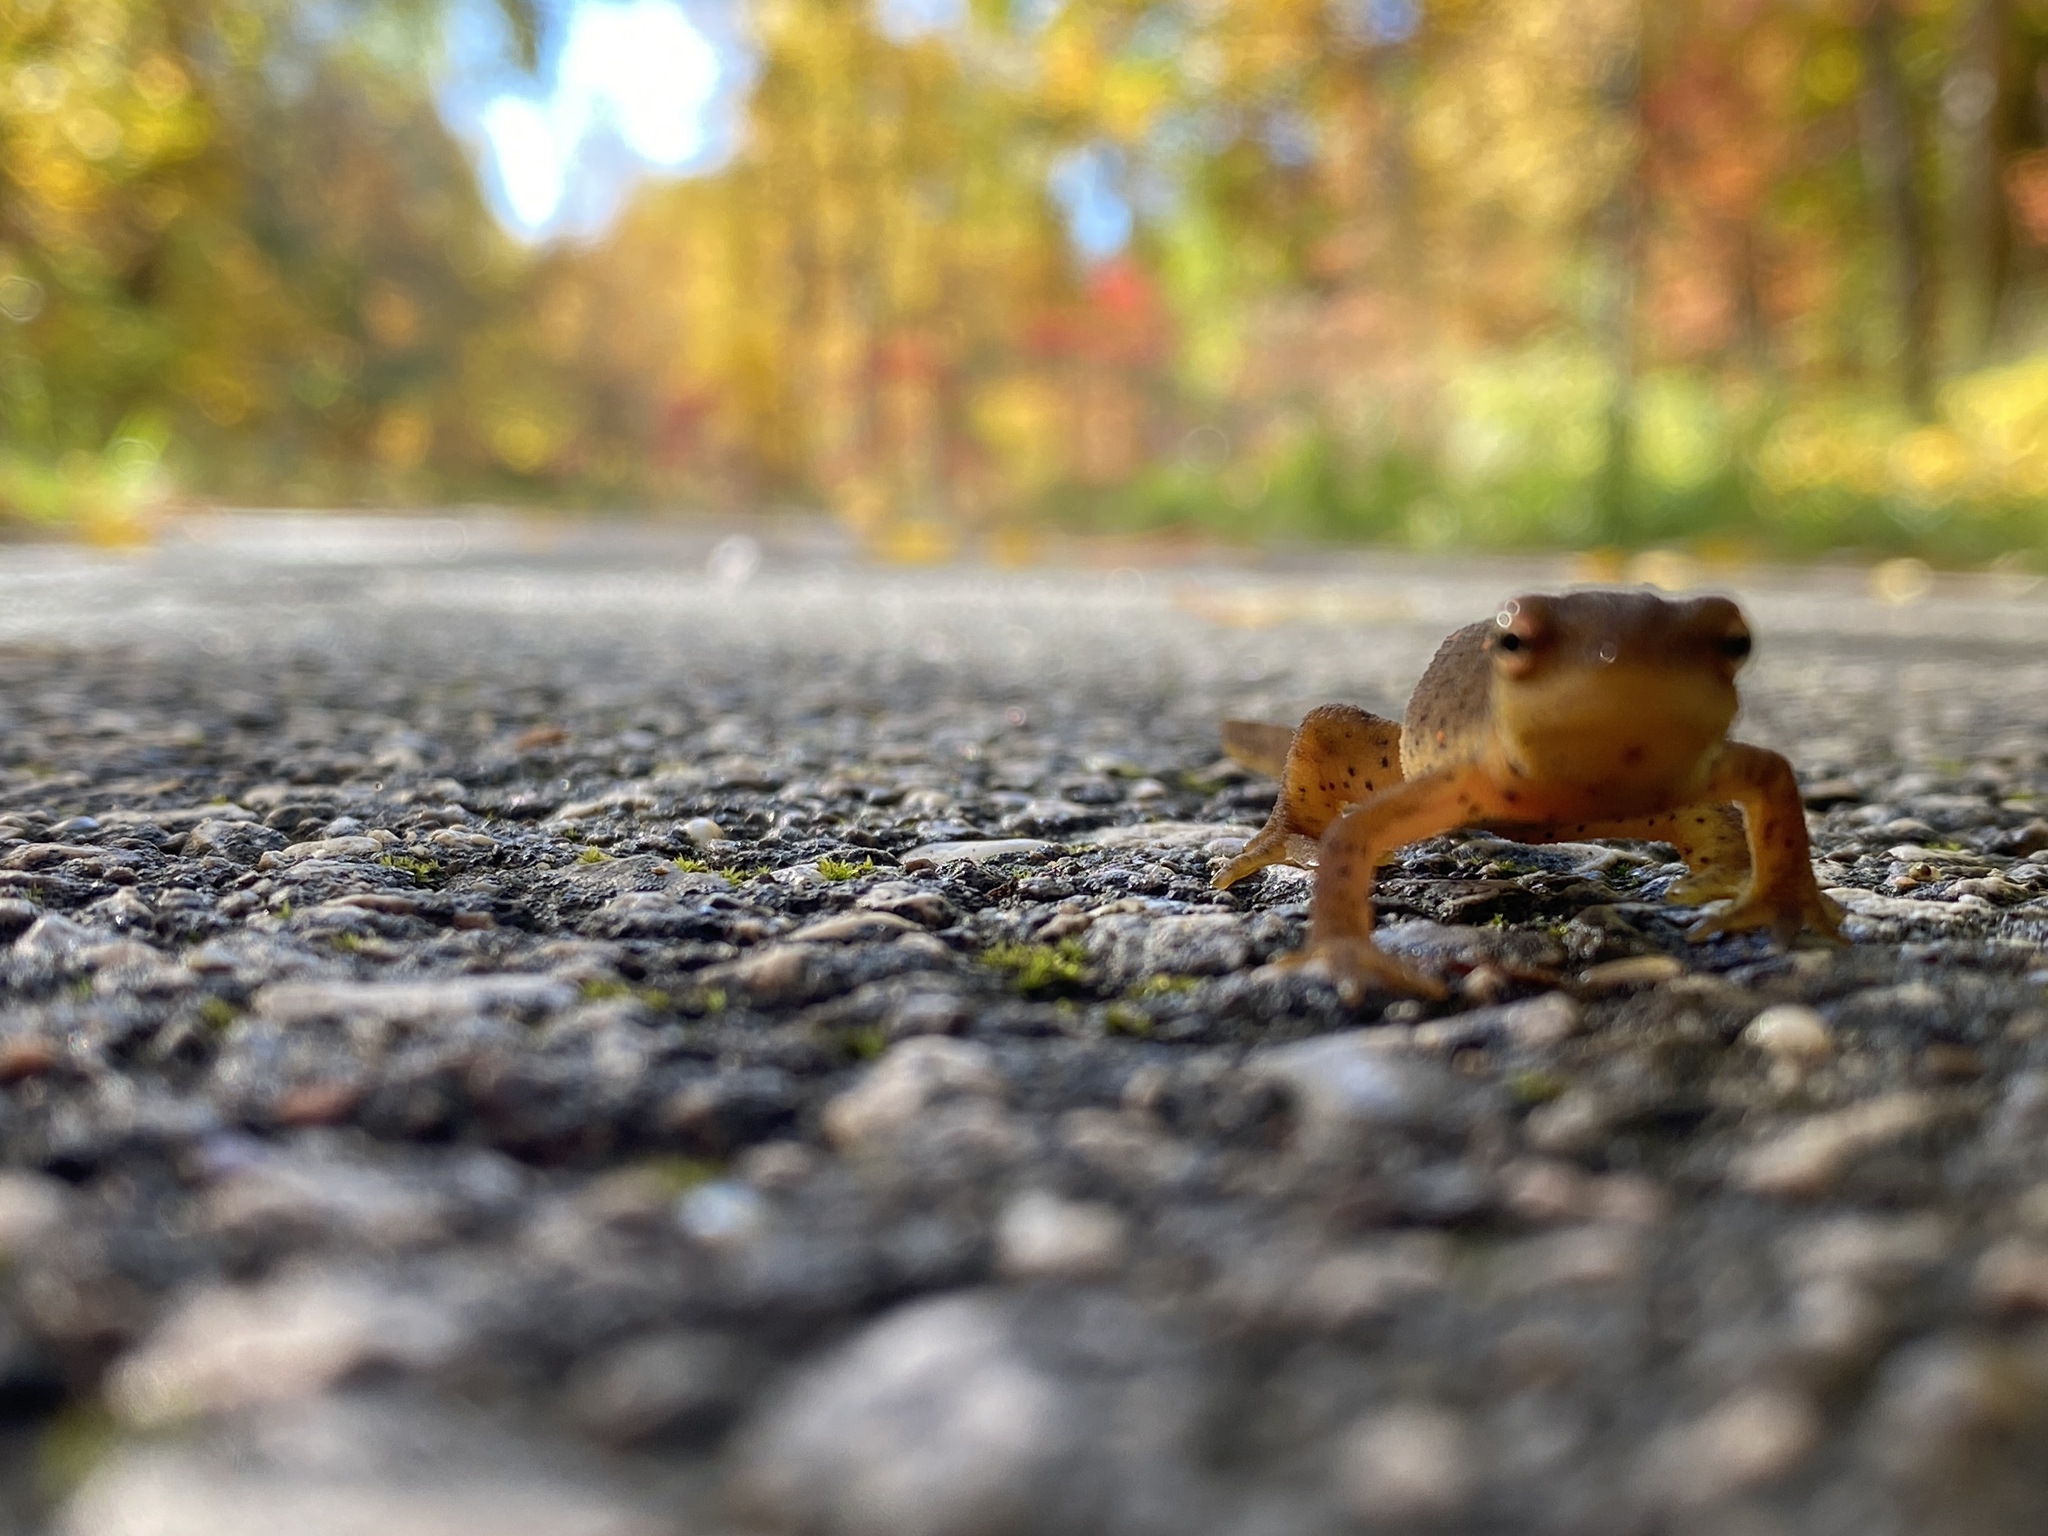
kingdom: Animalia
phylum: Chordata
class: Amphibia
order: Caudata
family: Salamandridae
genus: Notophthalmus
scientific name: Notophthalmus viridescens
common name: Eastern newt
